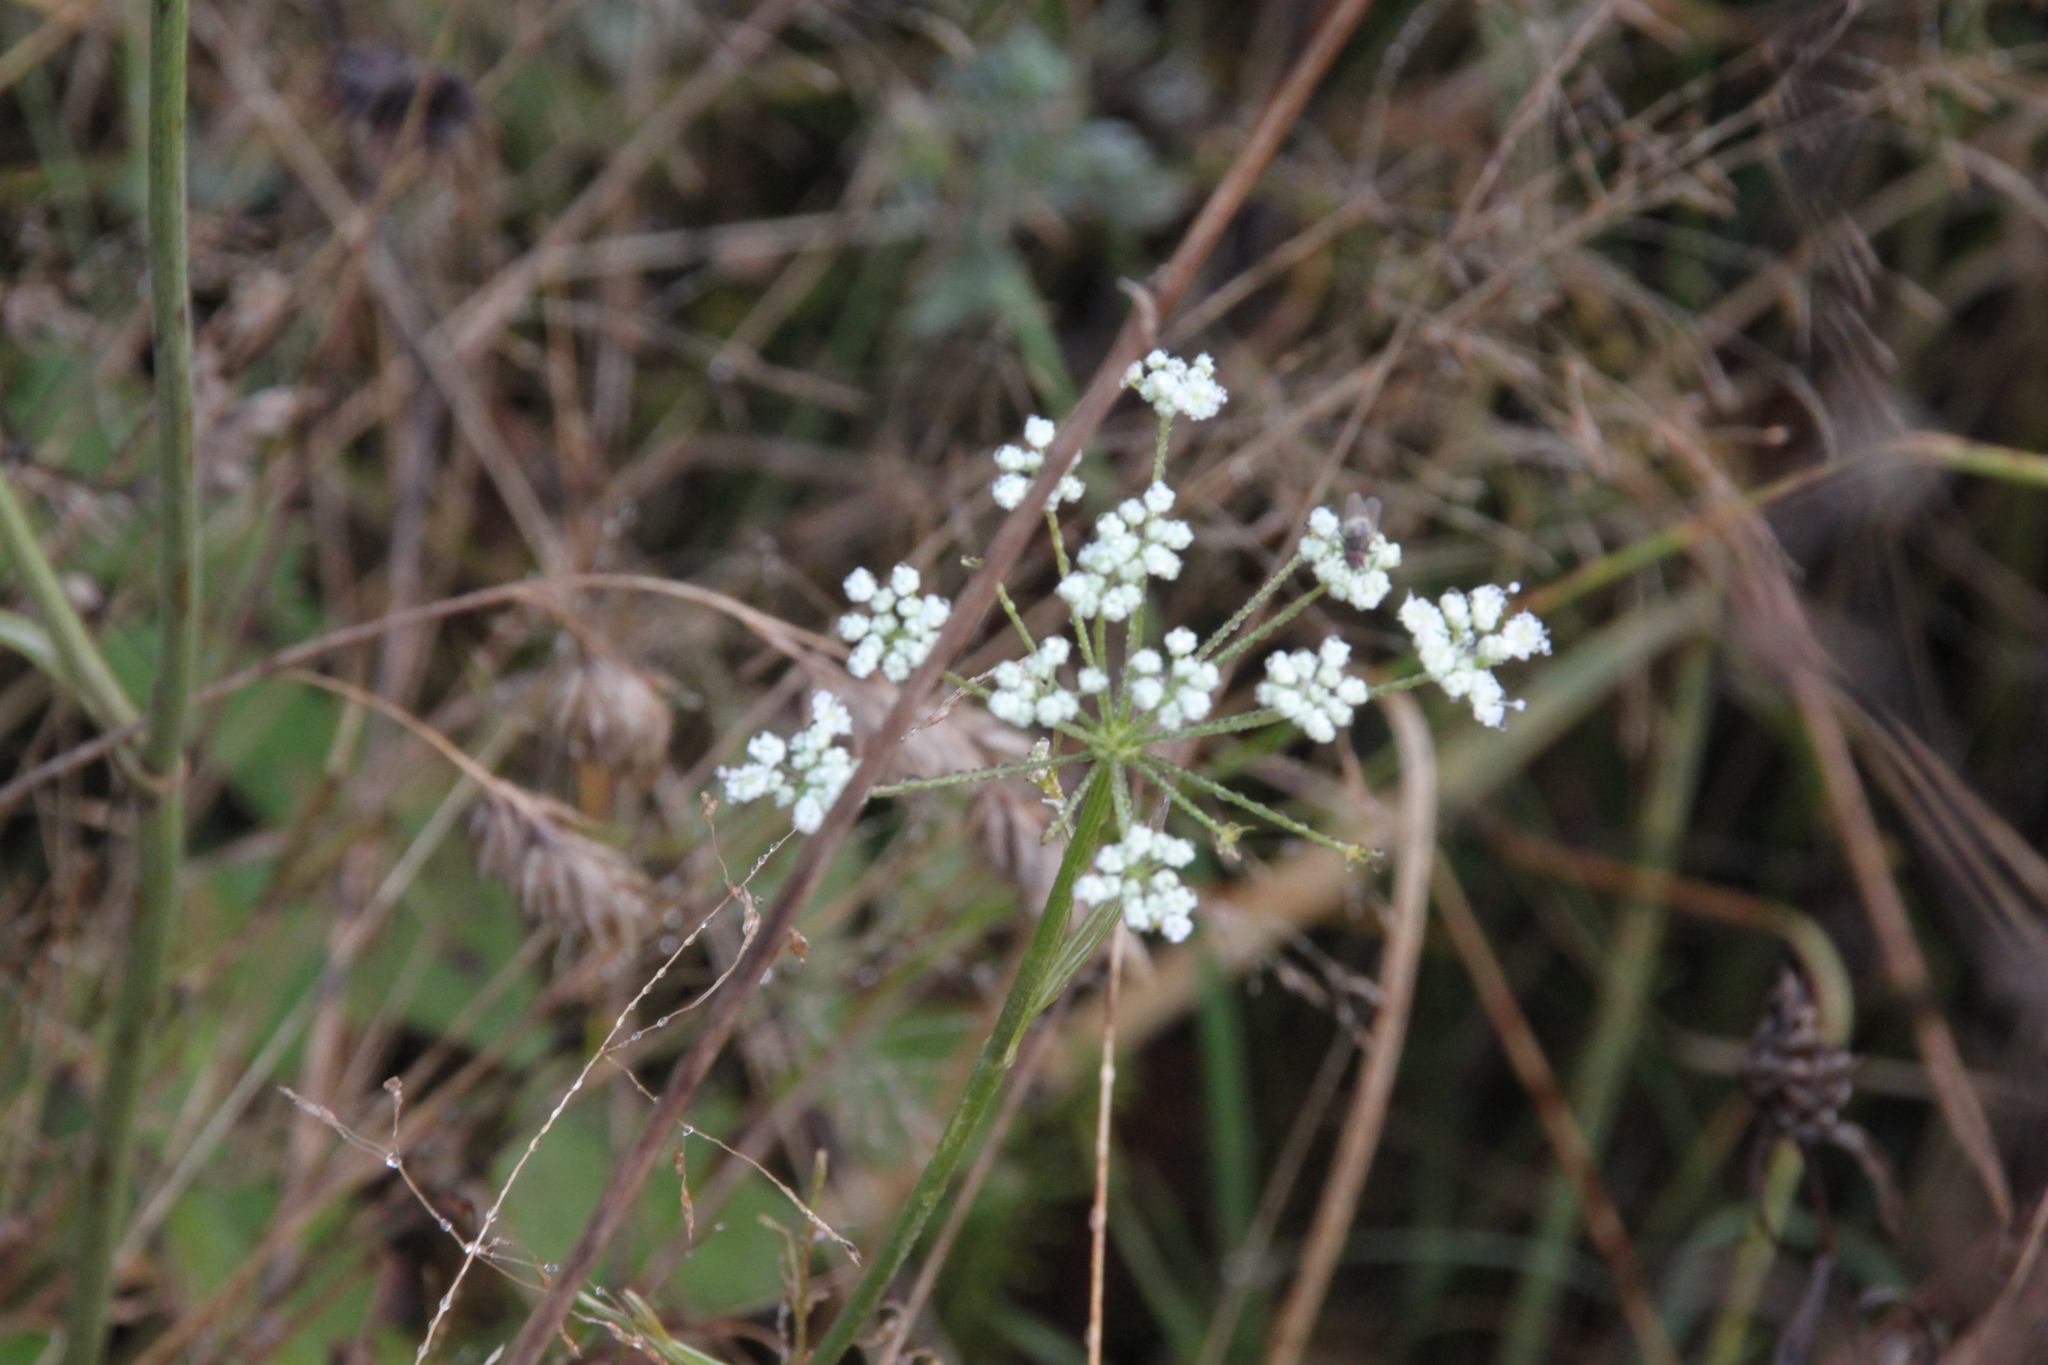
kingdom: Plantae
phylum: Tracheophyta
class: Magnoliopsida
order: Apiales
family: Apiaceae
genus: Pimpinella
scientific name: Pimpinella saxifraga
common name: Burnet-saxifrage
